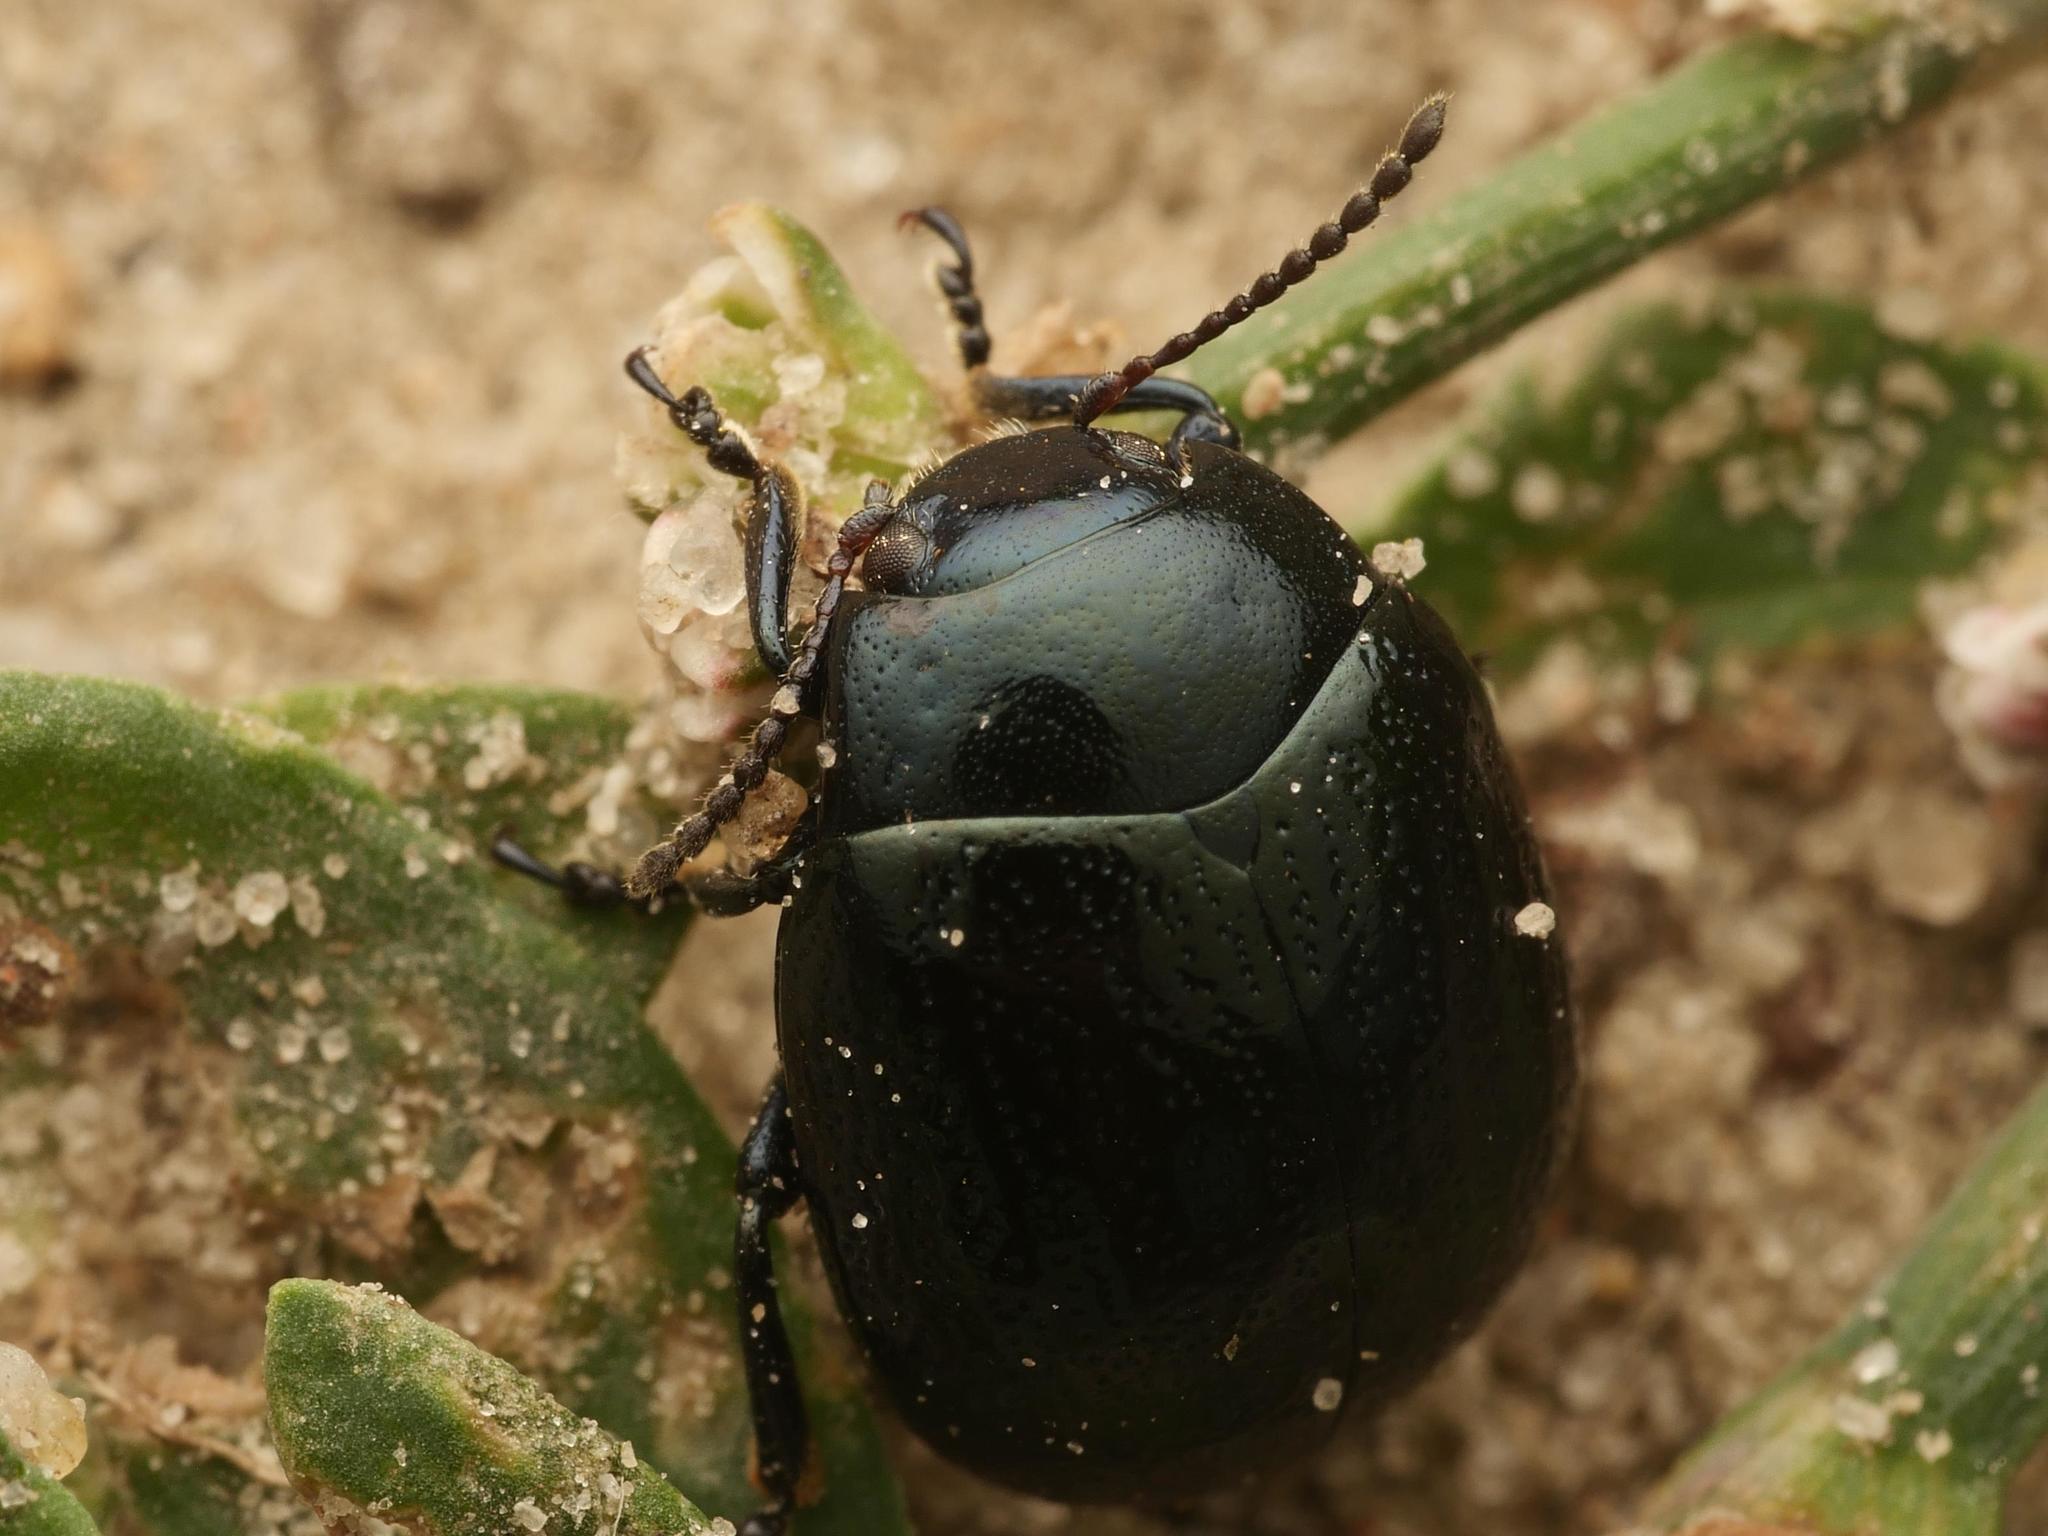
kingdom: Animalia
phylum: Arthropoda
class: Insecta
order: Coleoptera
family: Chrysomelidae
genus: Chrysolina
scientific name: Chrysolina haemoptera
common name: Plantain leaf beetle
